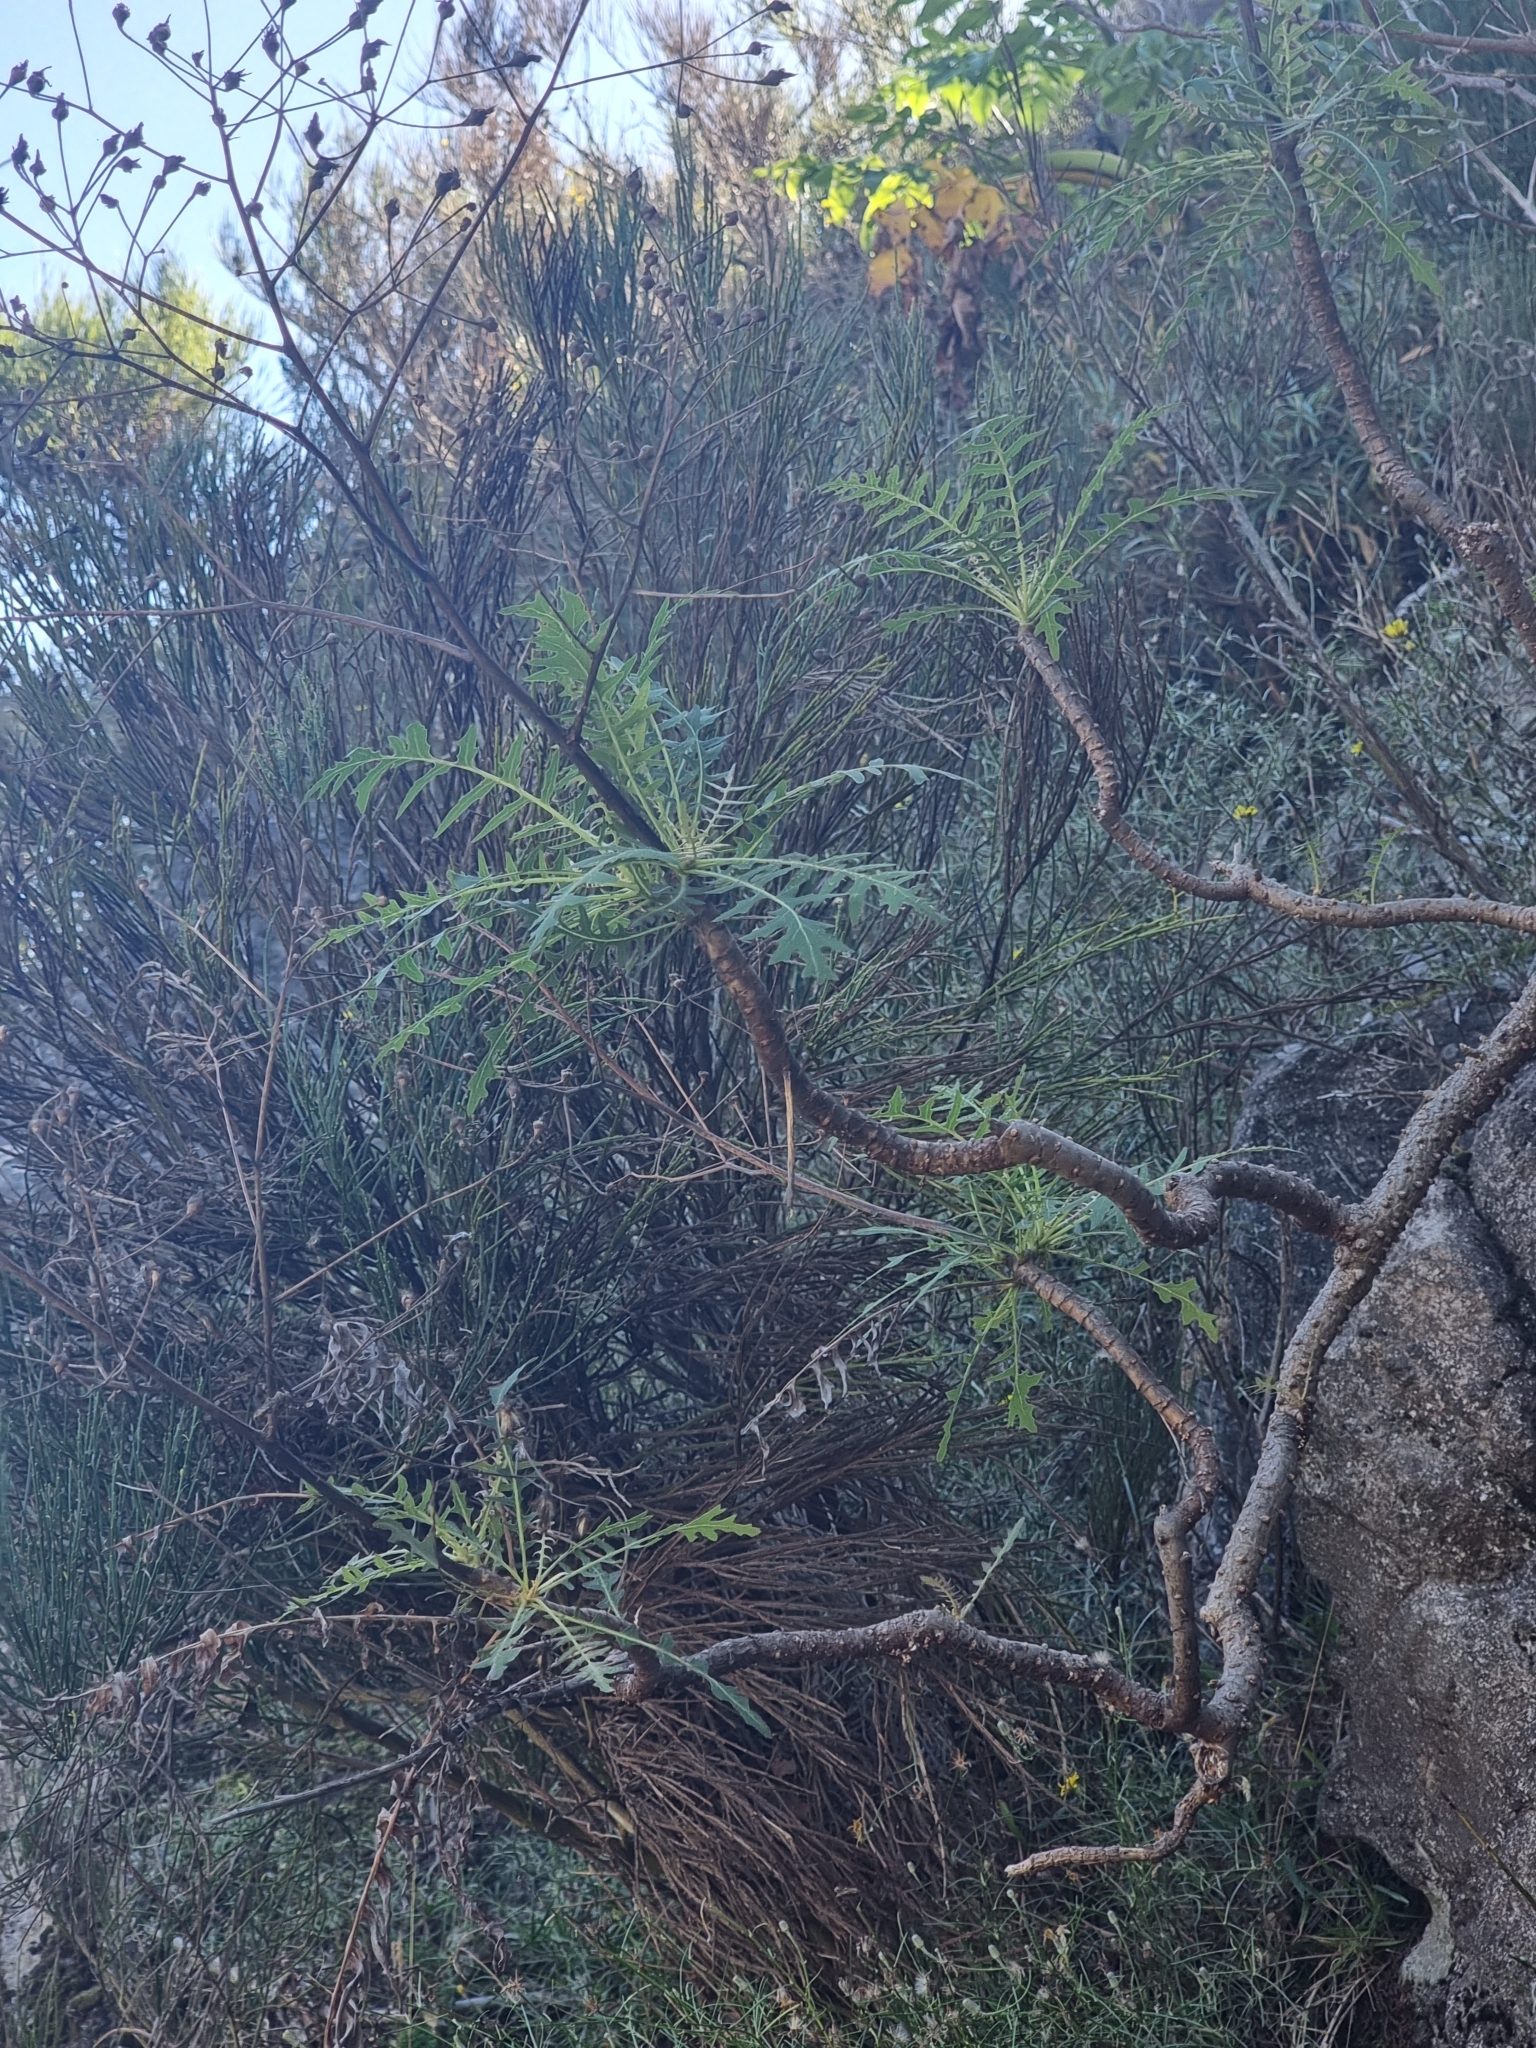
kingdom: Plantae
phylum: Tracheophyta
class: Magnoliopsida
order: Asterales
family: Asteraceae
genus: Sonchus
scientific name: Sonchus pinnatus
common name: Wing-leaved sow-thistle
